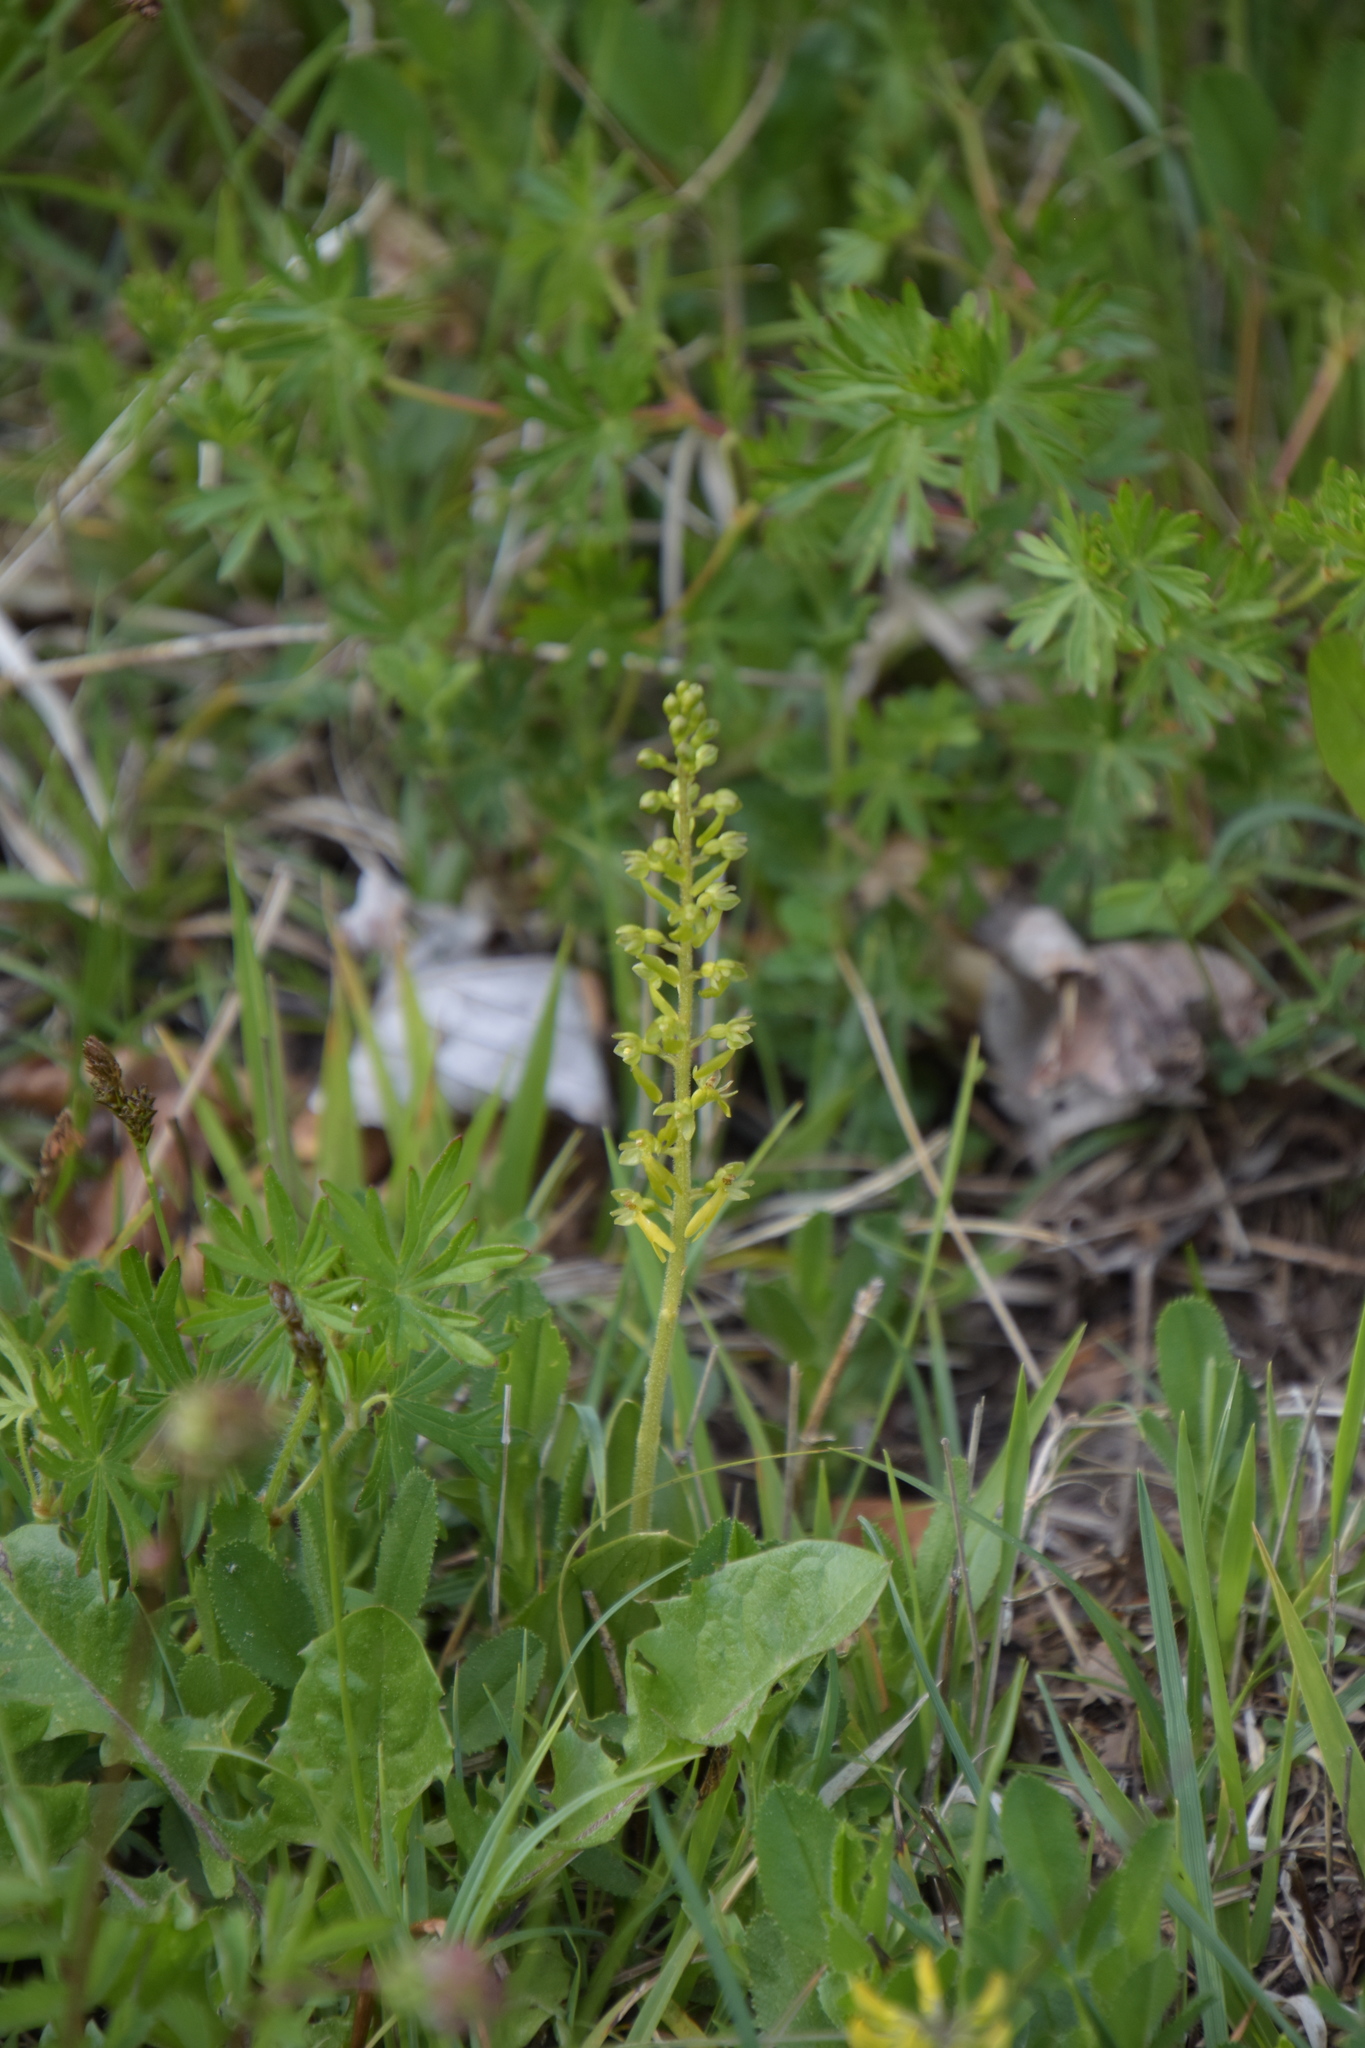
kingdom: Plantae
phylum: Tracheophyta
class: Liliopsida
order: Asparagales
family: Orchidaceae
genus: Neottia
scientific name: Neottia ovata
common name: Common twayblade
